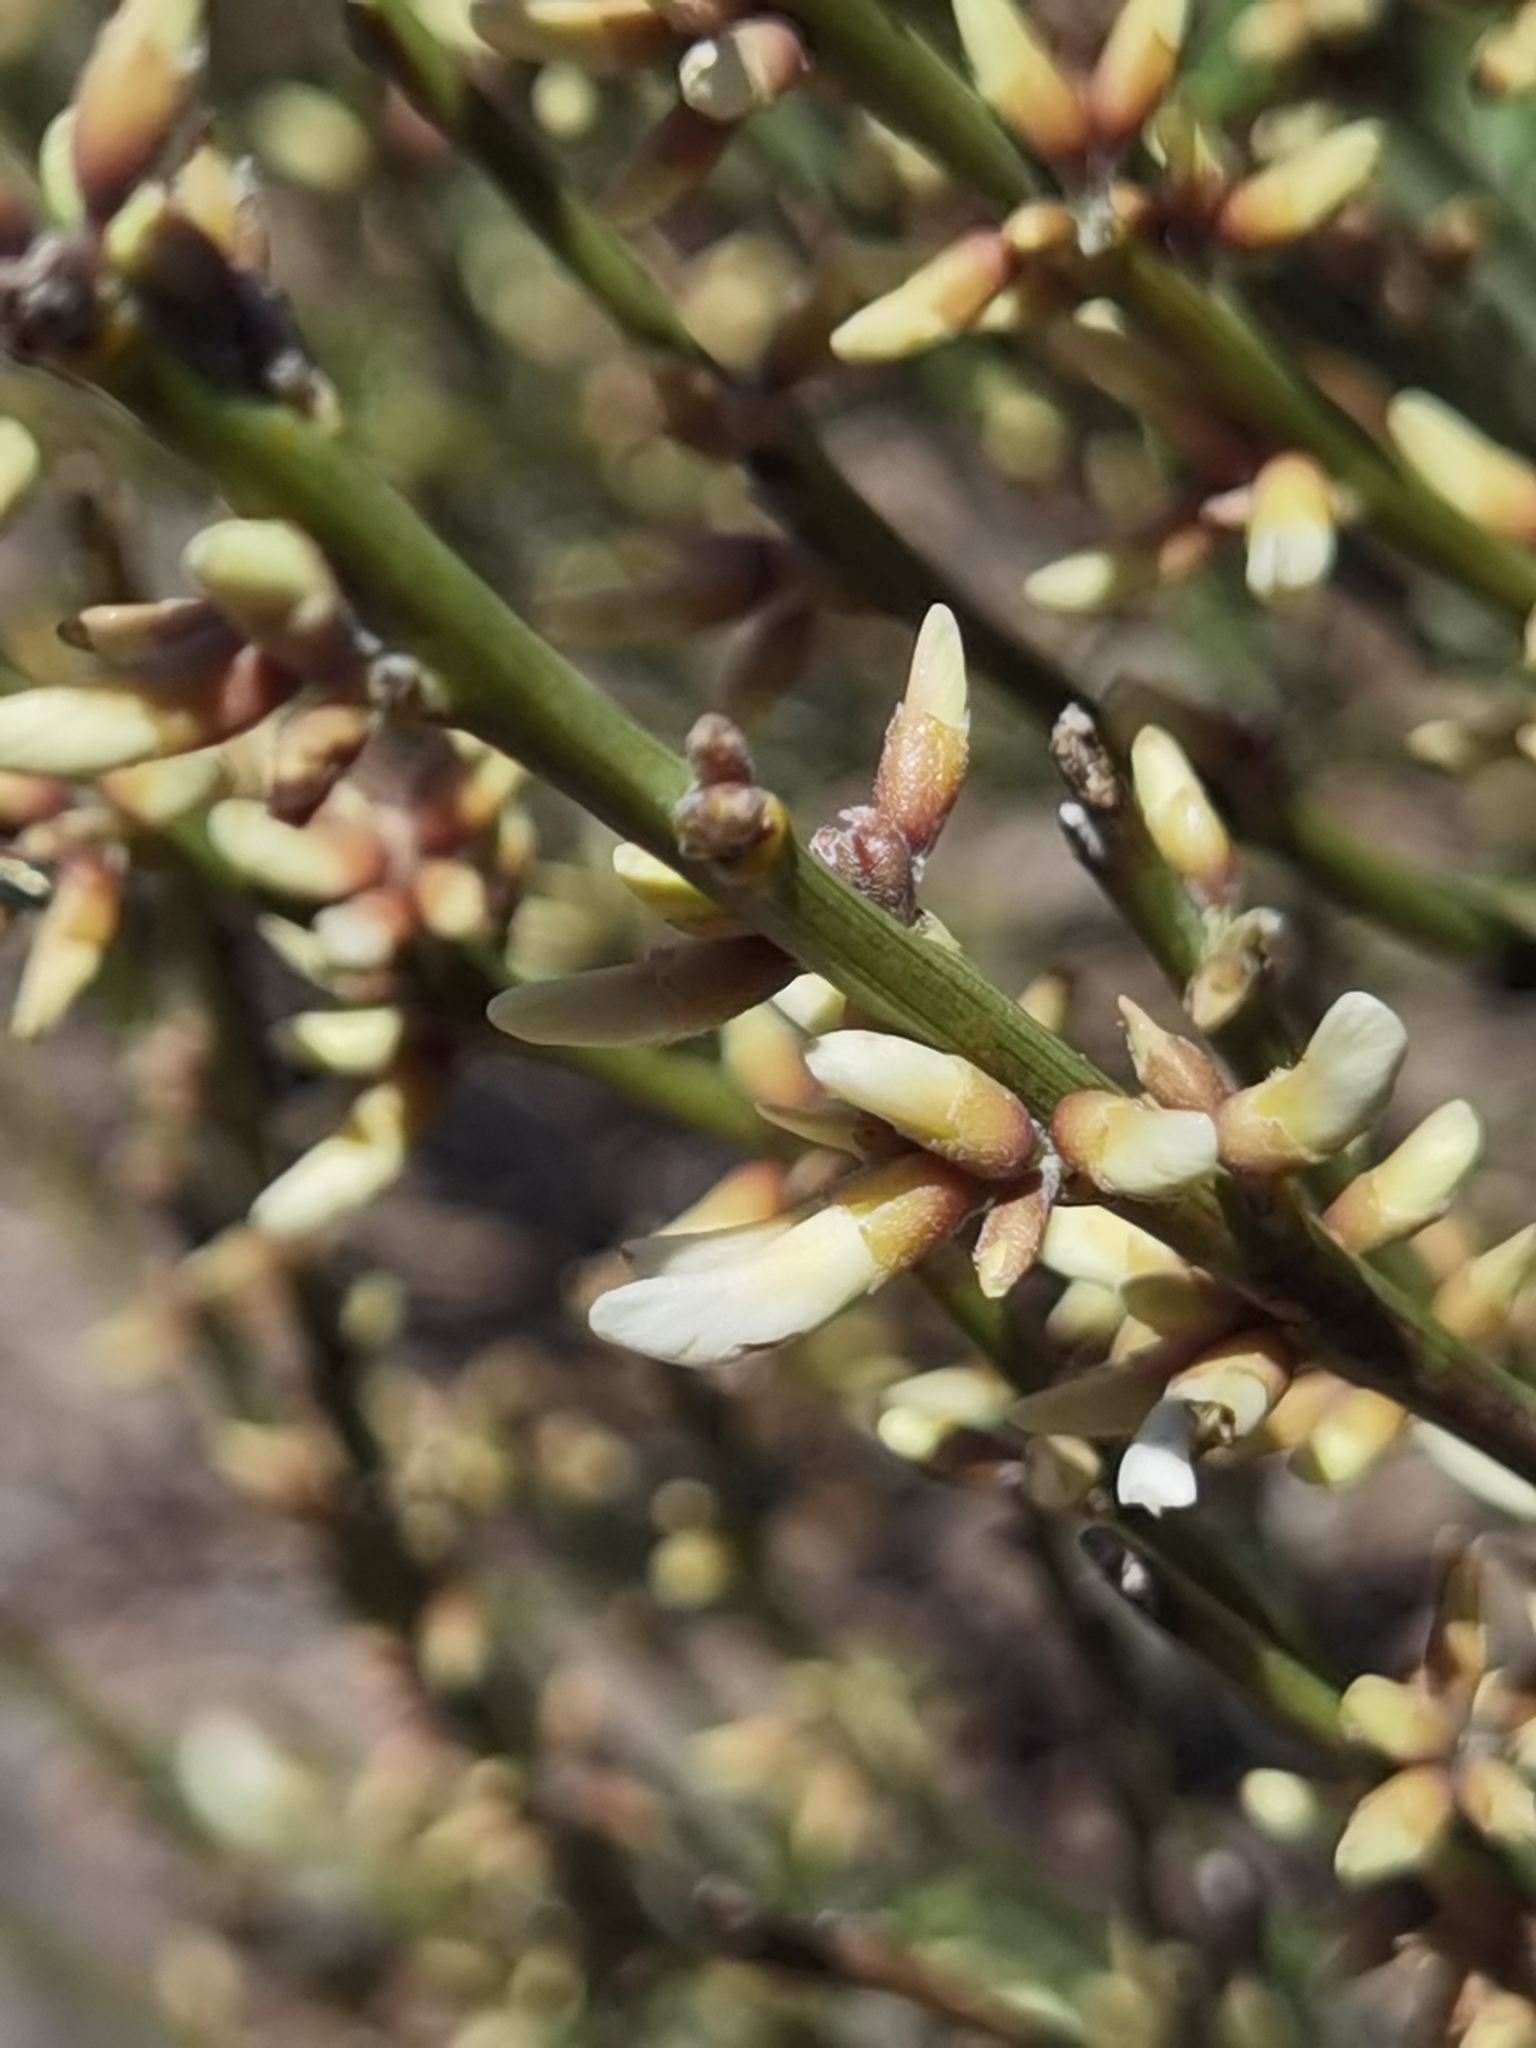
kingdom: Plantae
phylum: Tracheophyta
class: Magnoliopsida
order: Fabales
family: Fabaceae
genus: Cytisus
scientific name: Cytisus supranubius
